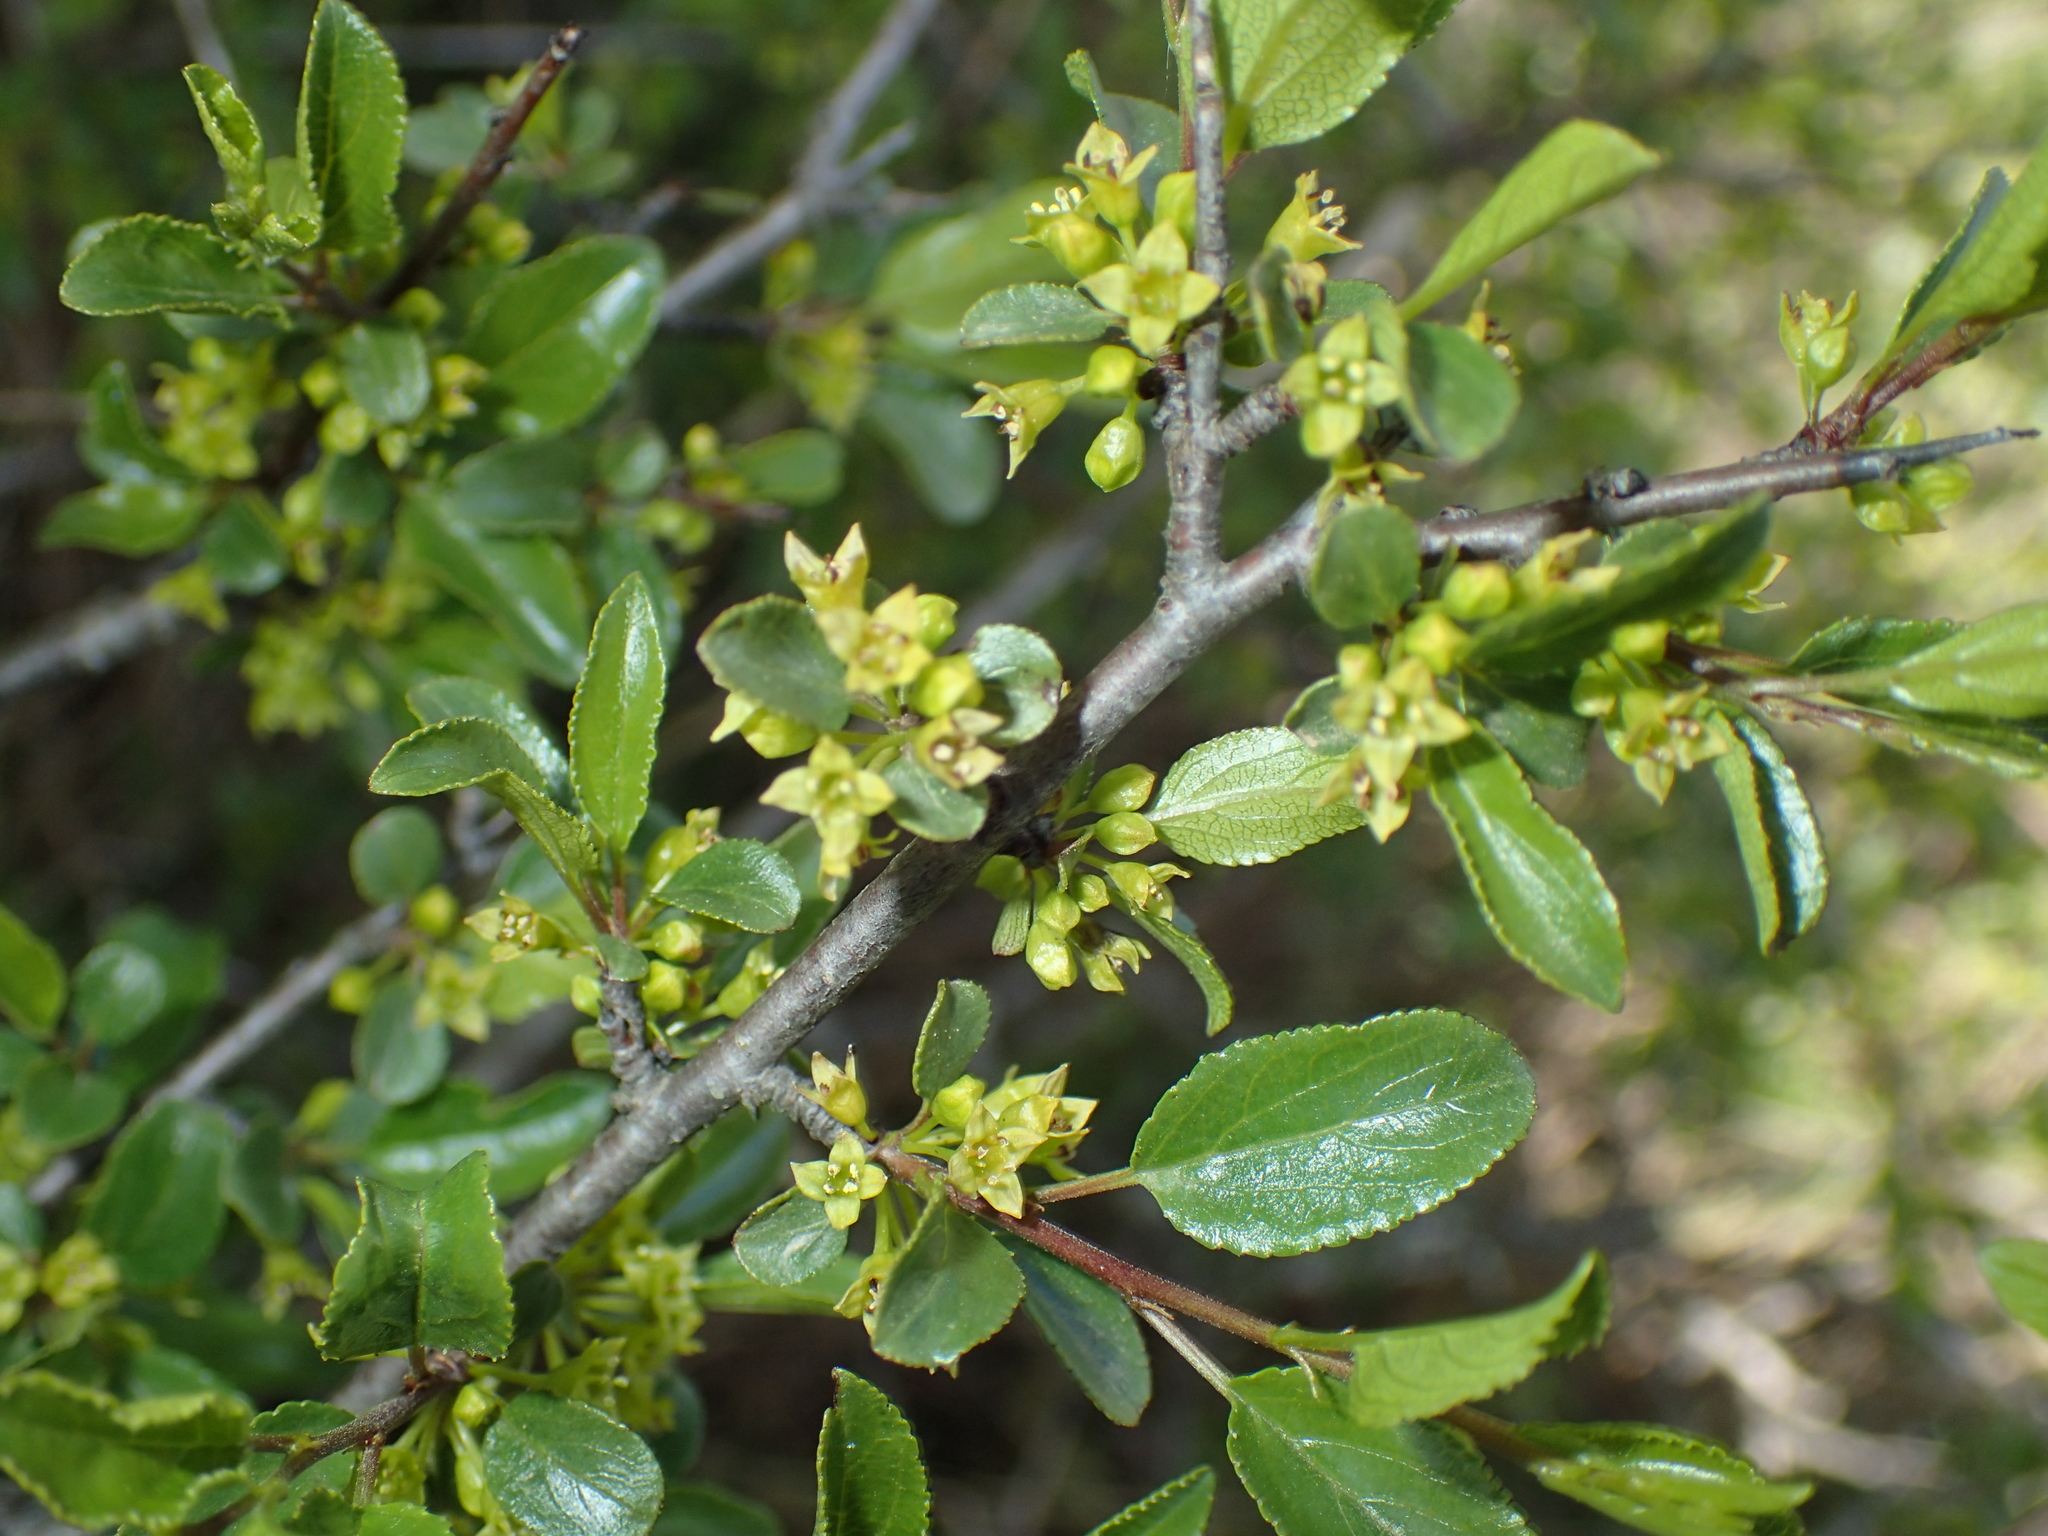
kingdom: Plantae
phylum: Tracheophyta
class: Magnoliopsida
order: Rosales
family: Rhamnaceae
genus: Rhamnus
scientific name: Rhamnus saxatilis
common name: Rock buckthorn
